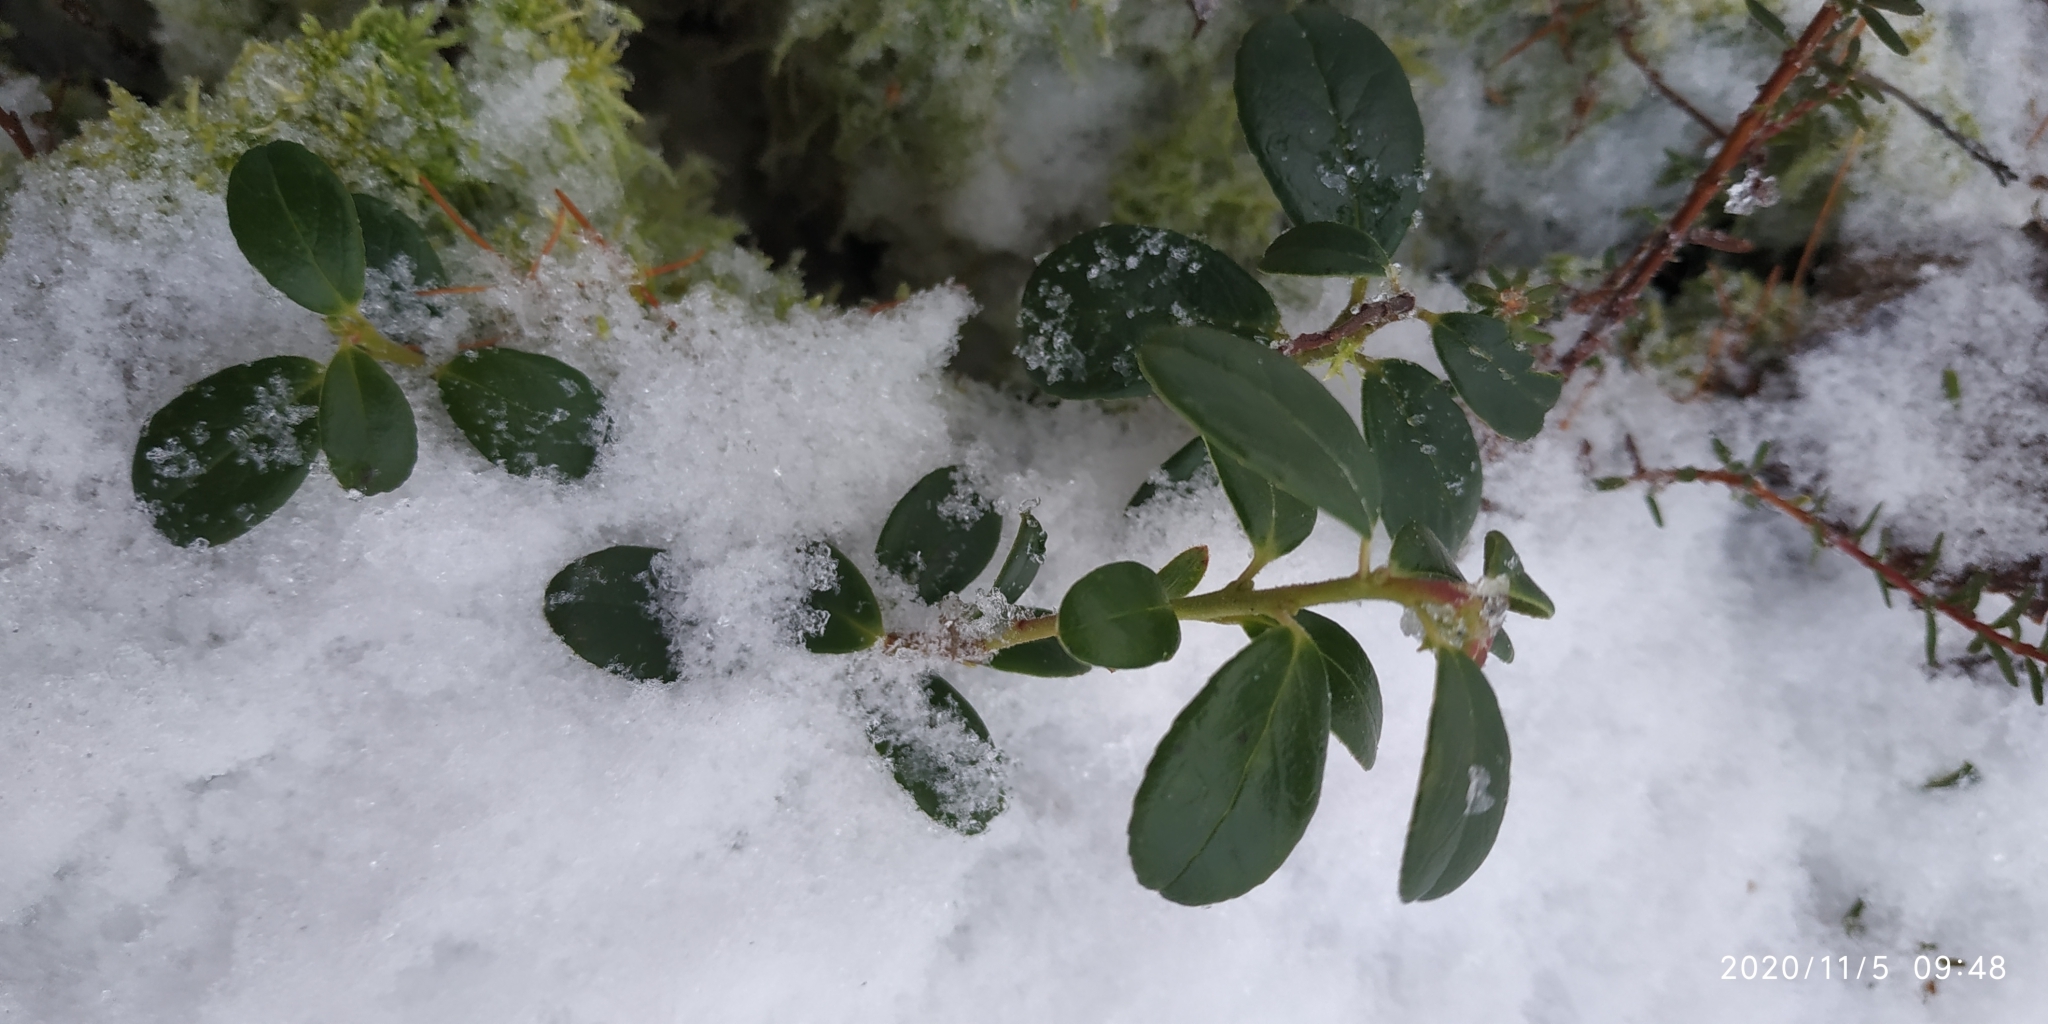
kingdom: Plantae
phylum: Tracheophyta
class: Magnoliopsida
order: Ericales
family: Ericaceae
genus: Vaccinium
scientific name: Vaccinium vitis-idaea
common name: Cowberry
